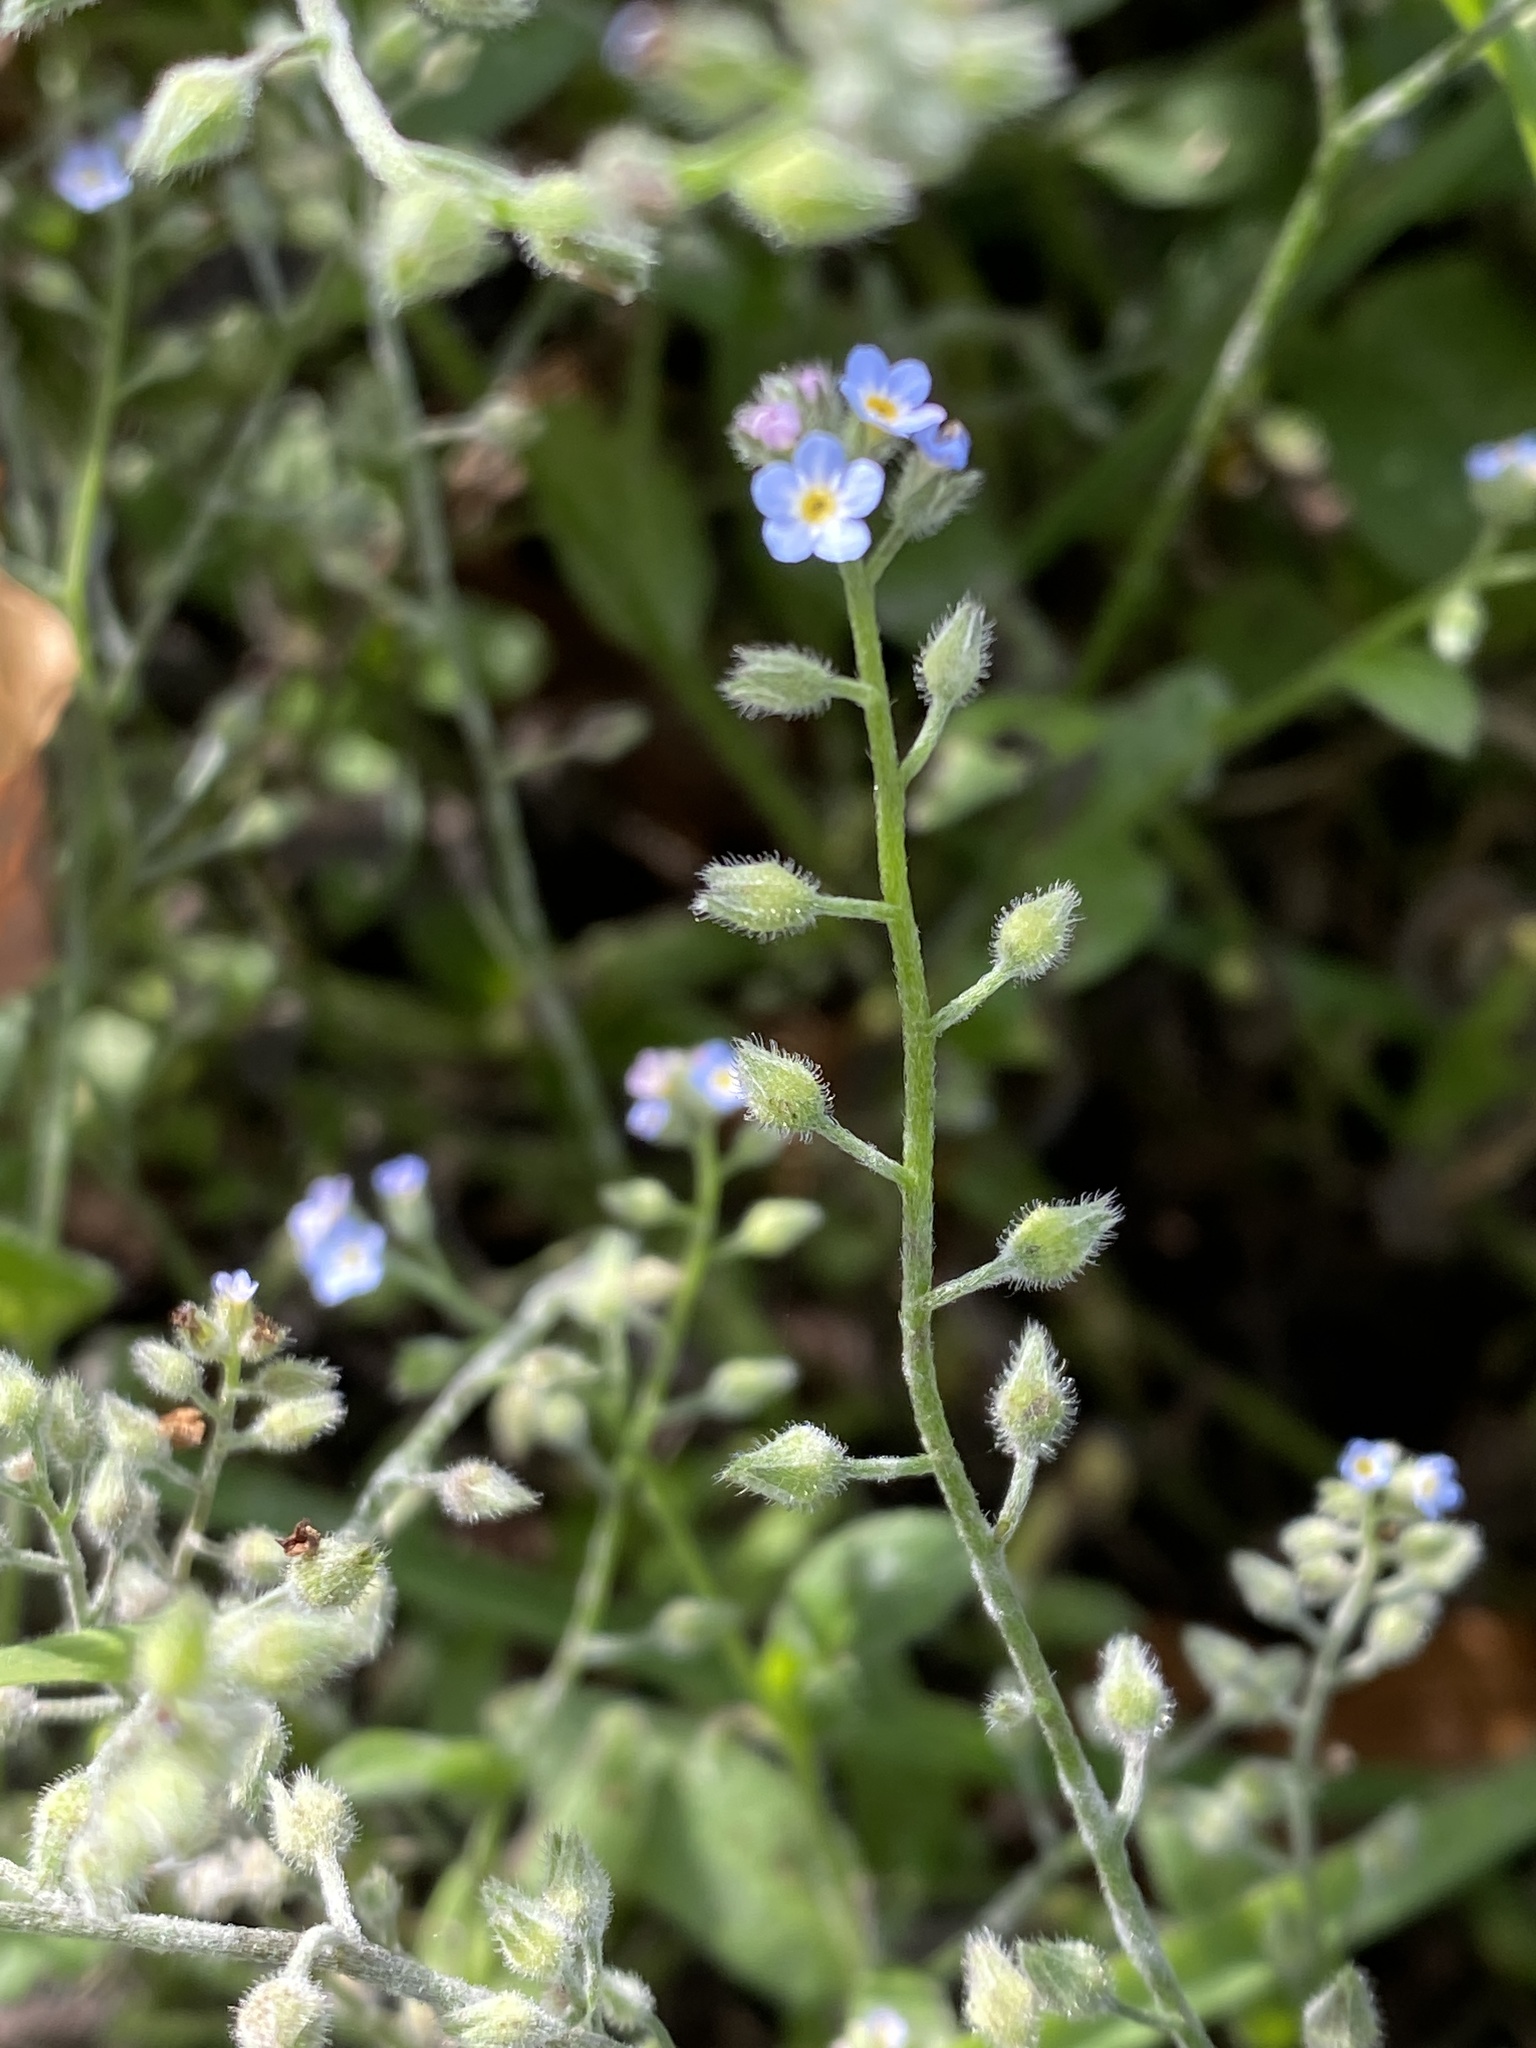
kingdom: Plantae
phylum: Tracheophyta
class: Magnoliopsida
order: Boraginales
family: Boraginaceae
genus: Myosotis
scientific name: Myosotis arvensis
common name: Field forget-me-not
